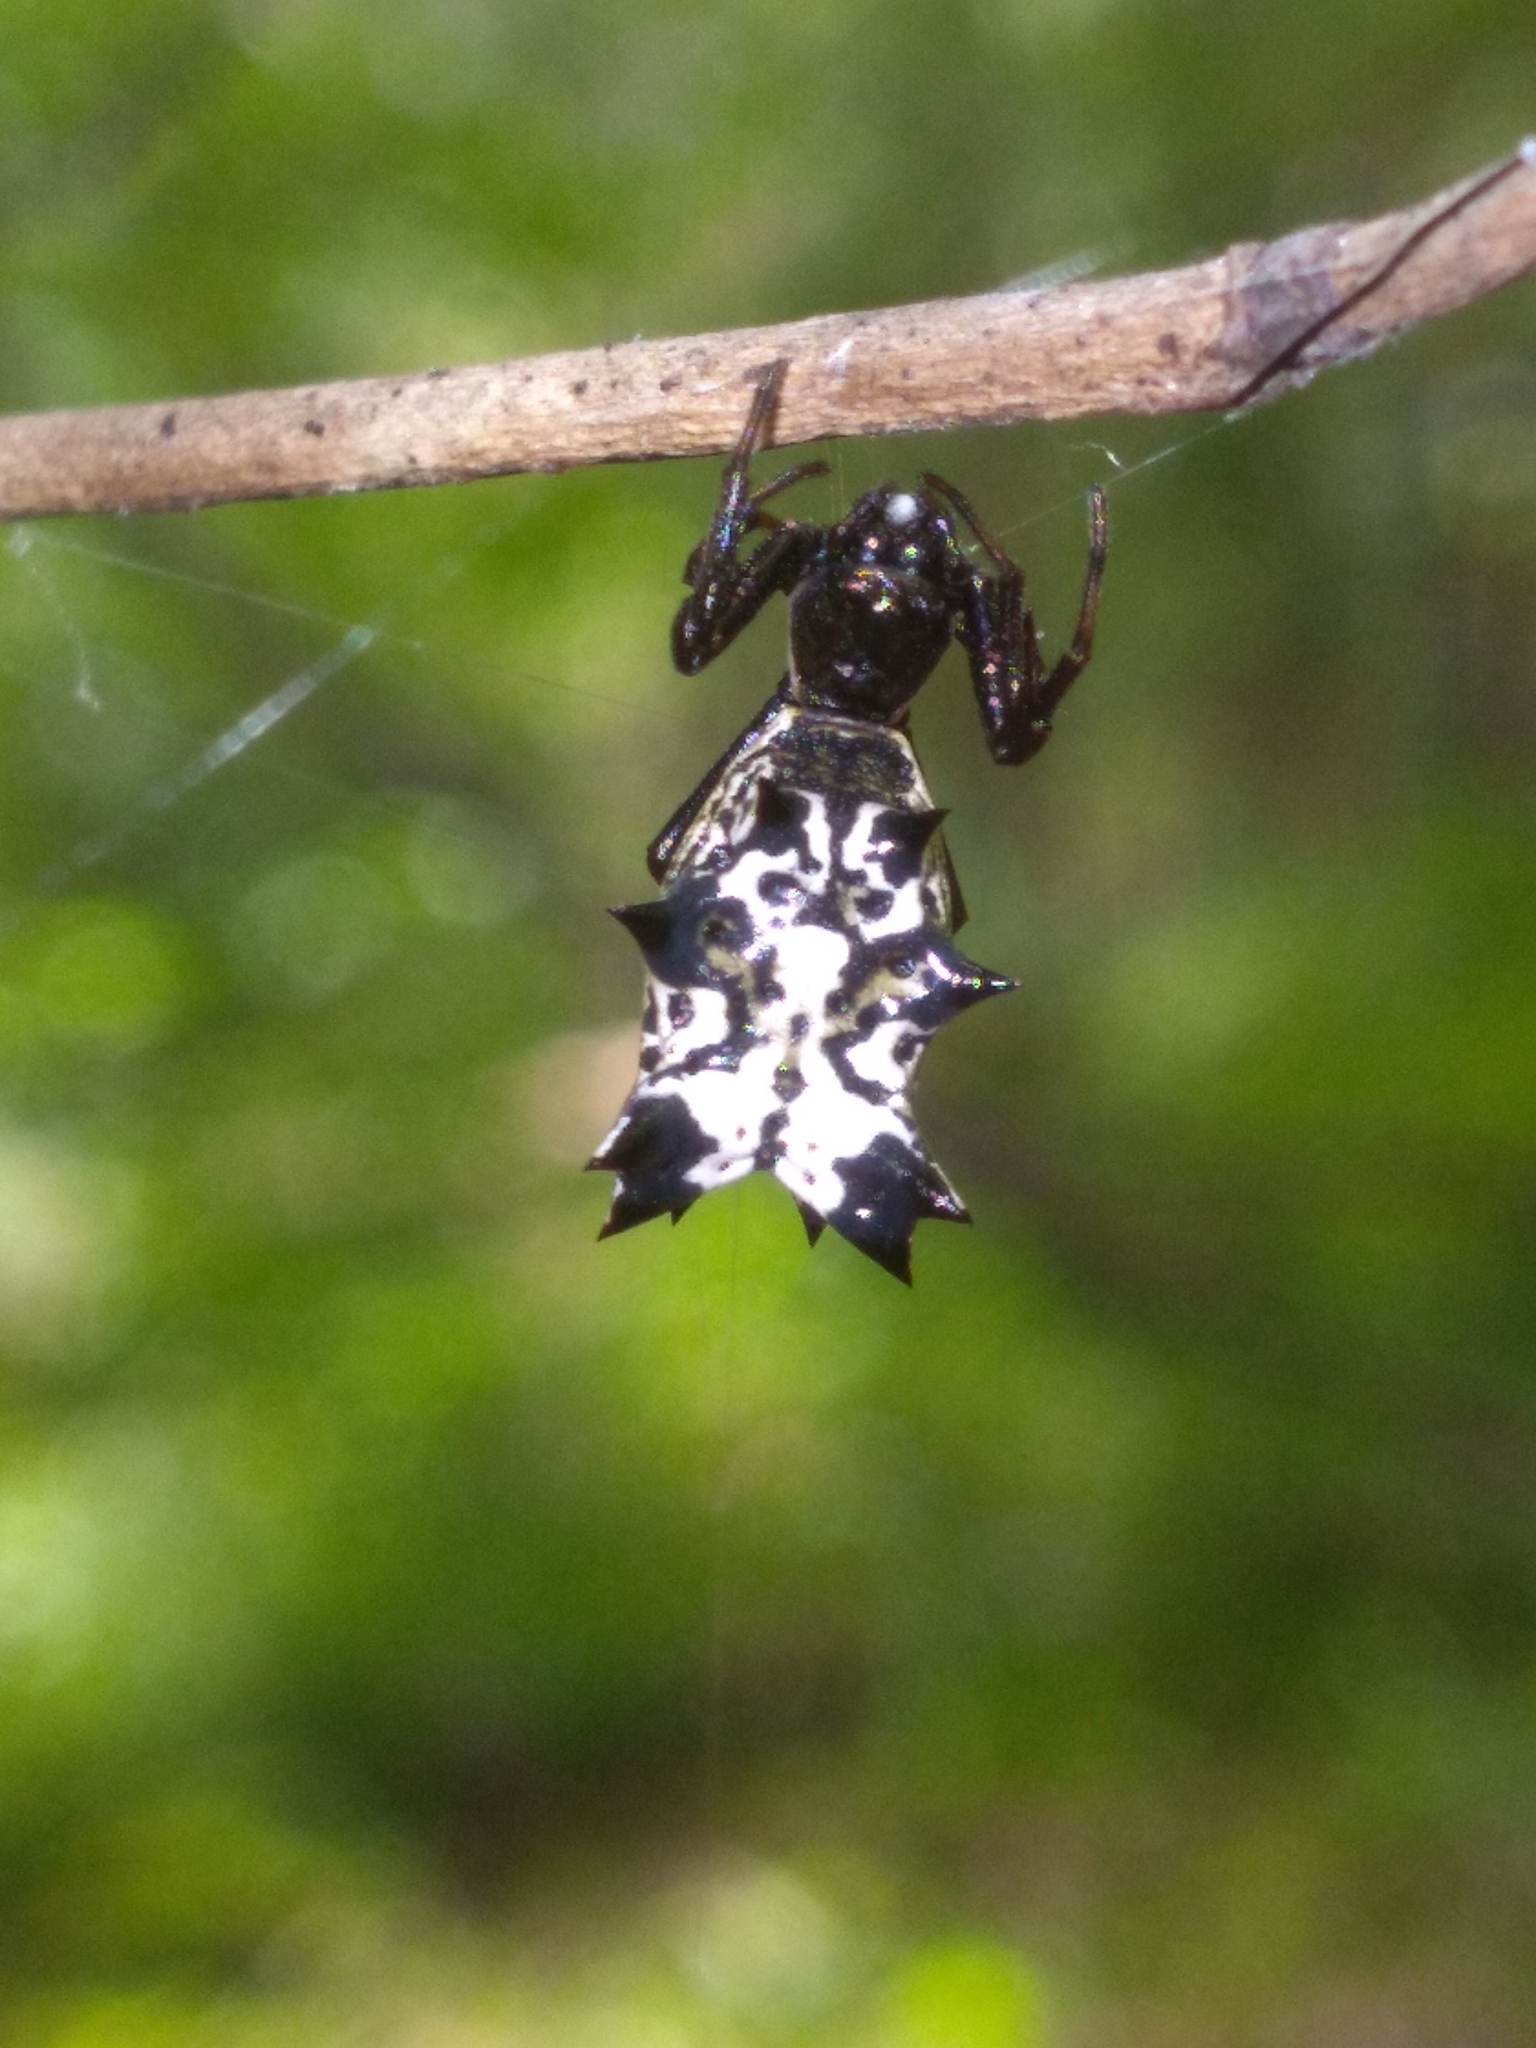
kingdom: Animalia
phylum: Arthropoda
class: Arachnida
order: Araneae
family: Araneidae
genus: Micrathena
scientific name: Micrathena gracilis
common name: Orb weavers
